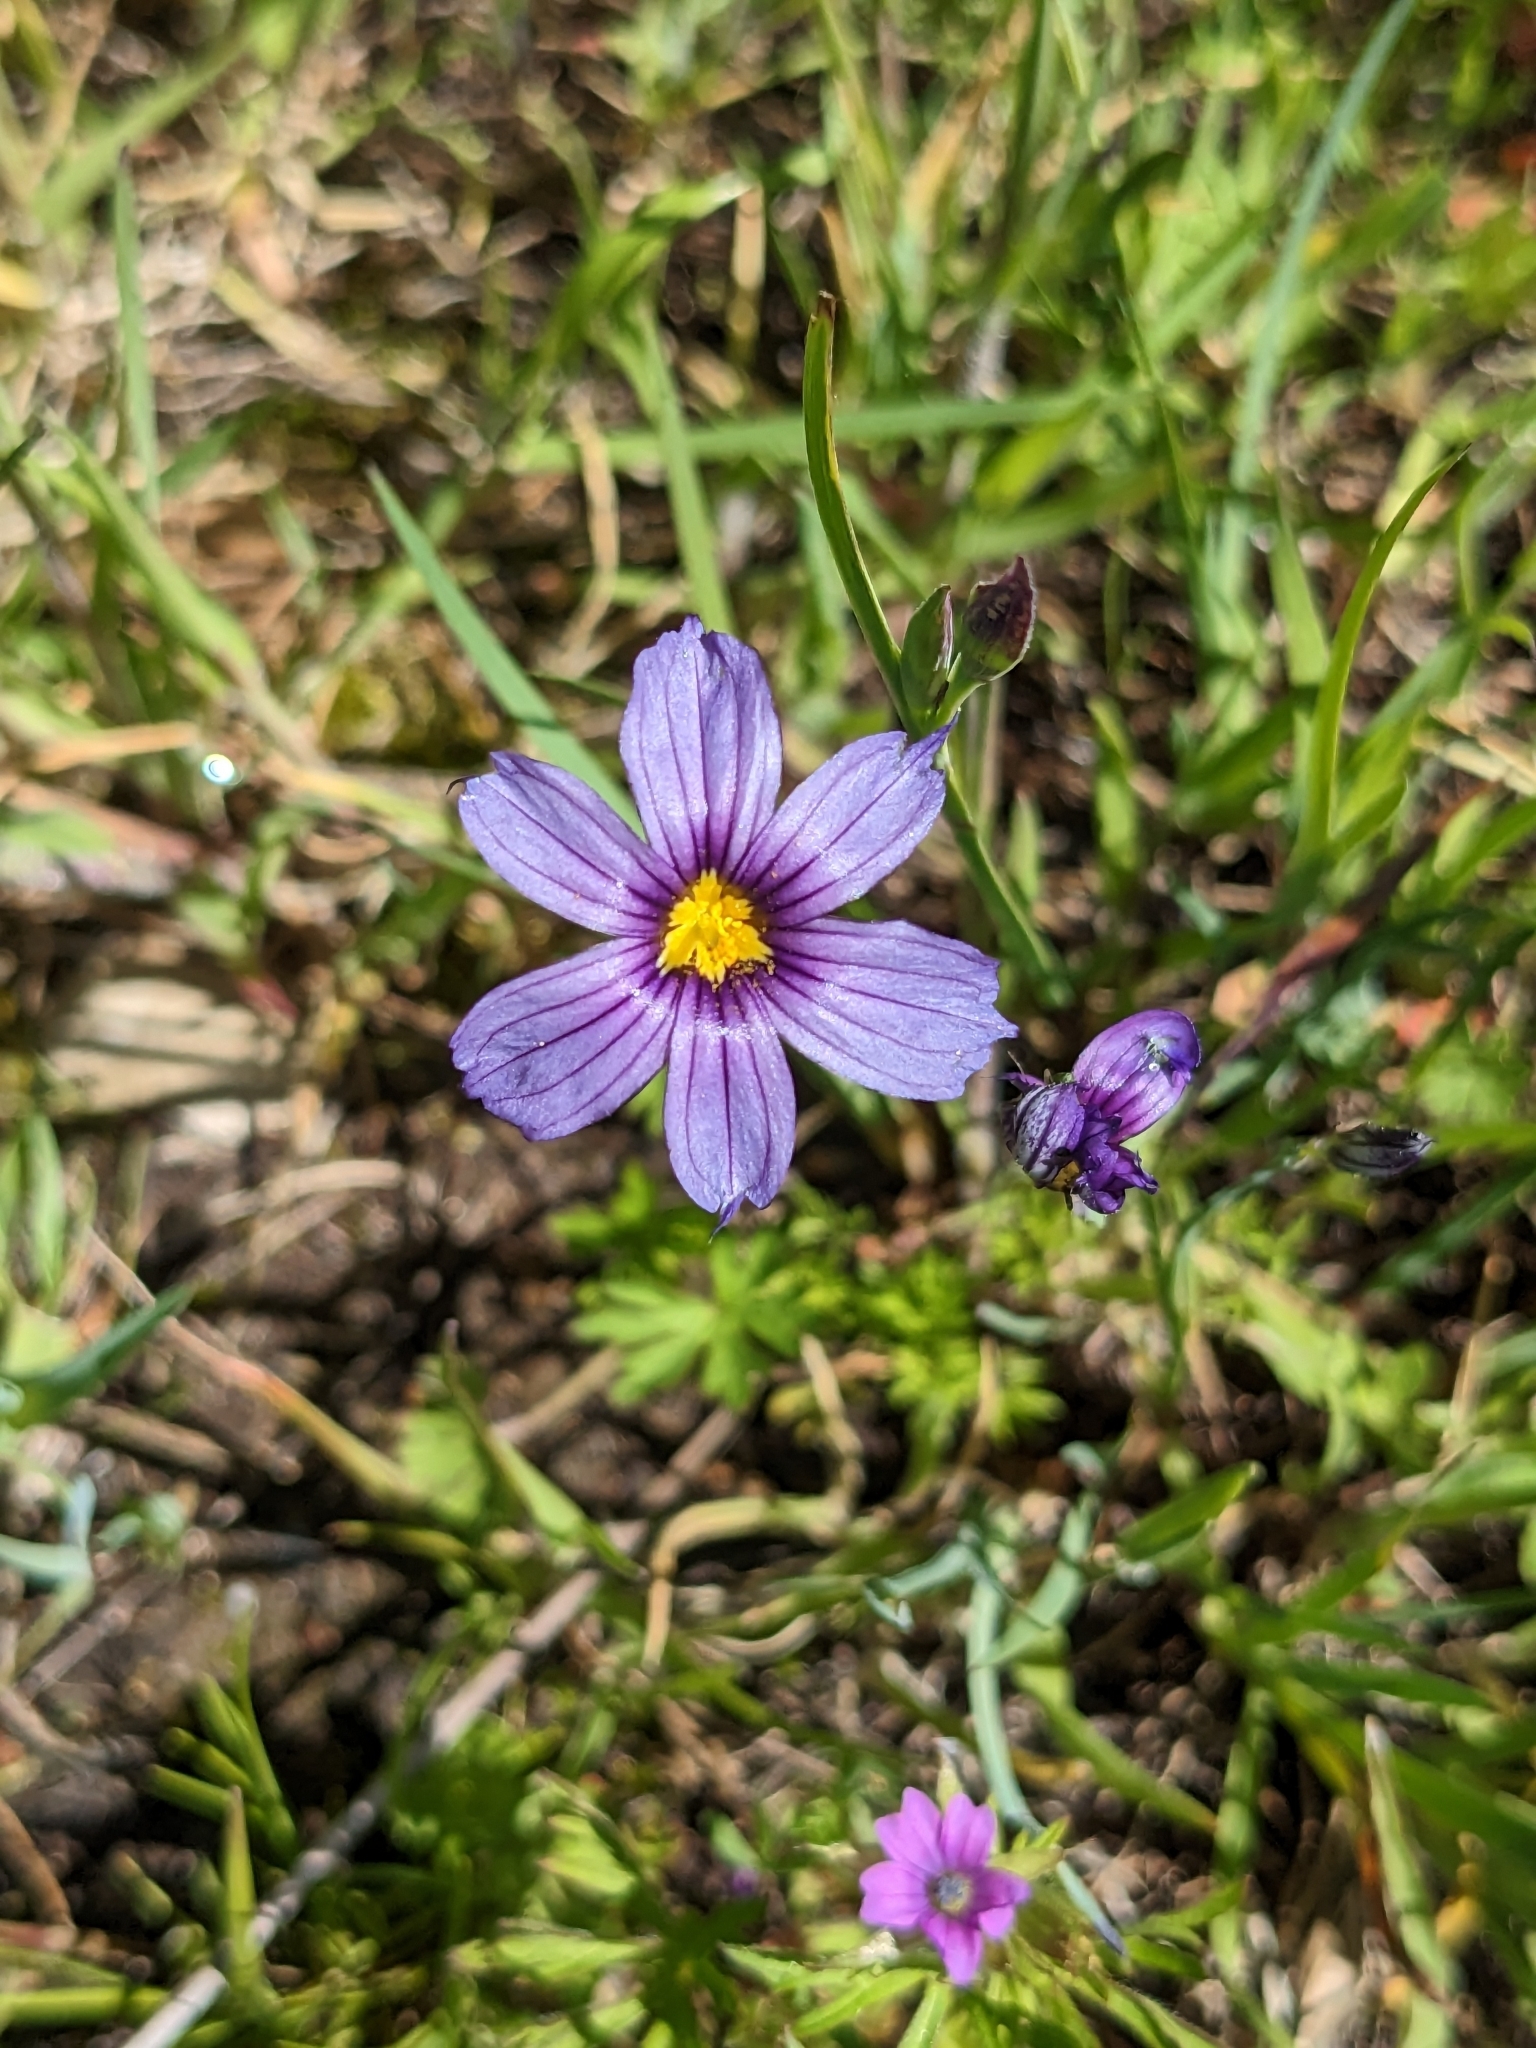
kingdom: Plantae
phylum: Tracheophyta
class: Liliopsida
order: Asparagales
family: Iridaceae
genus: Sisyrinchium
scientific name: Sisyrinchium bellum
